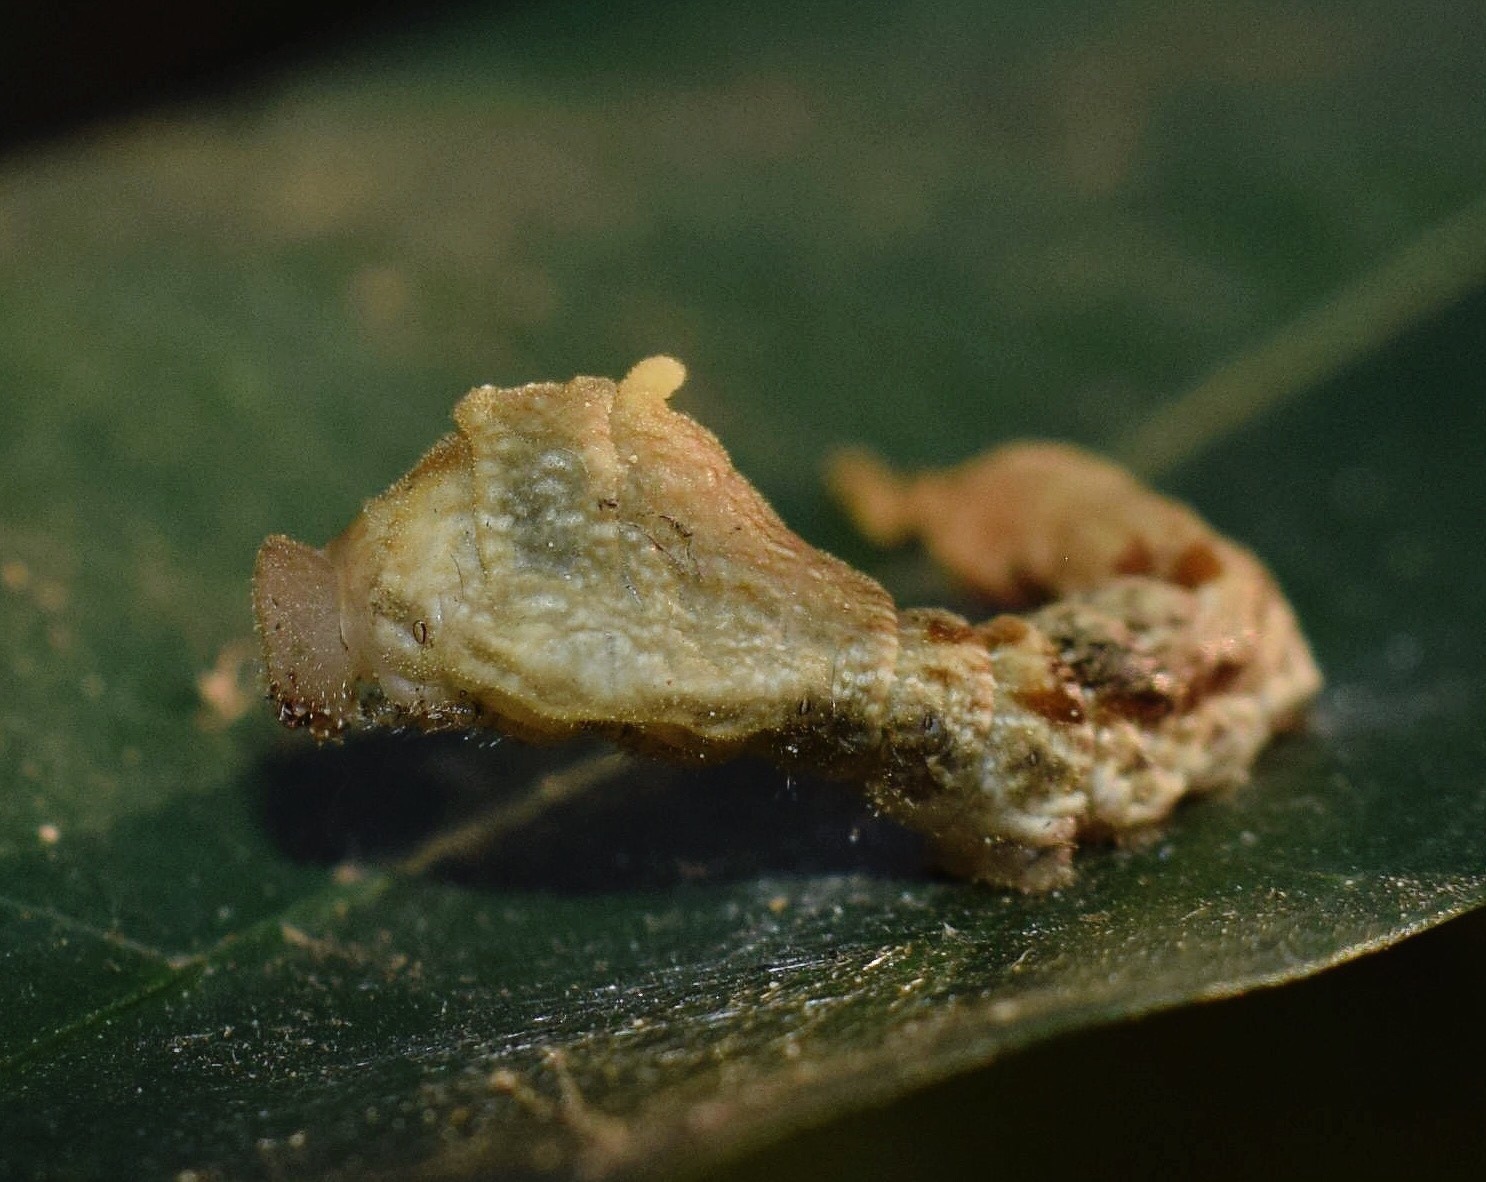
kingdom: Animalia
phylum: Arthropoda
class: Insecta
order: Lepidoptera
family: Drepanidae
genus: Negera
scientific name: Negera natalensis
